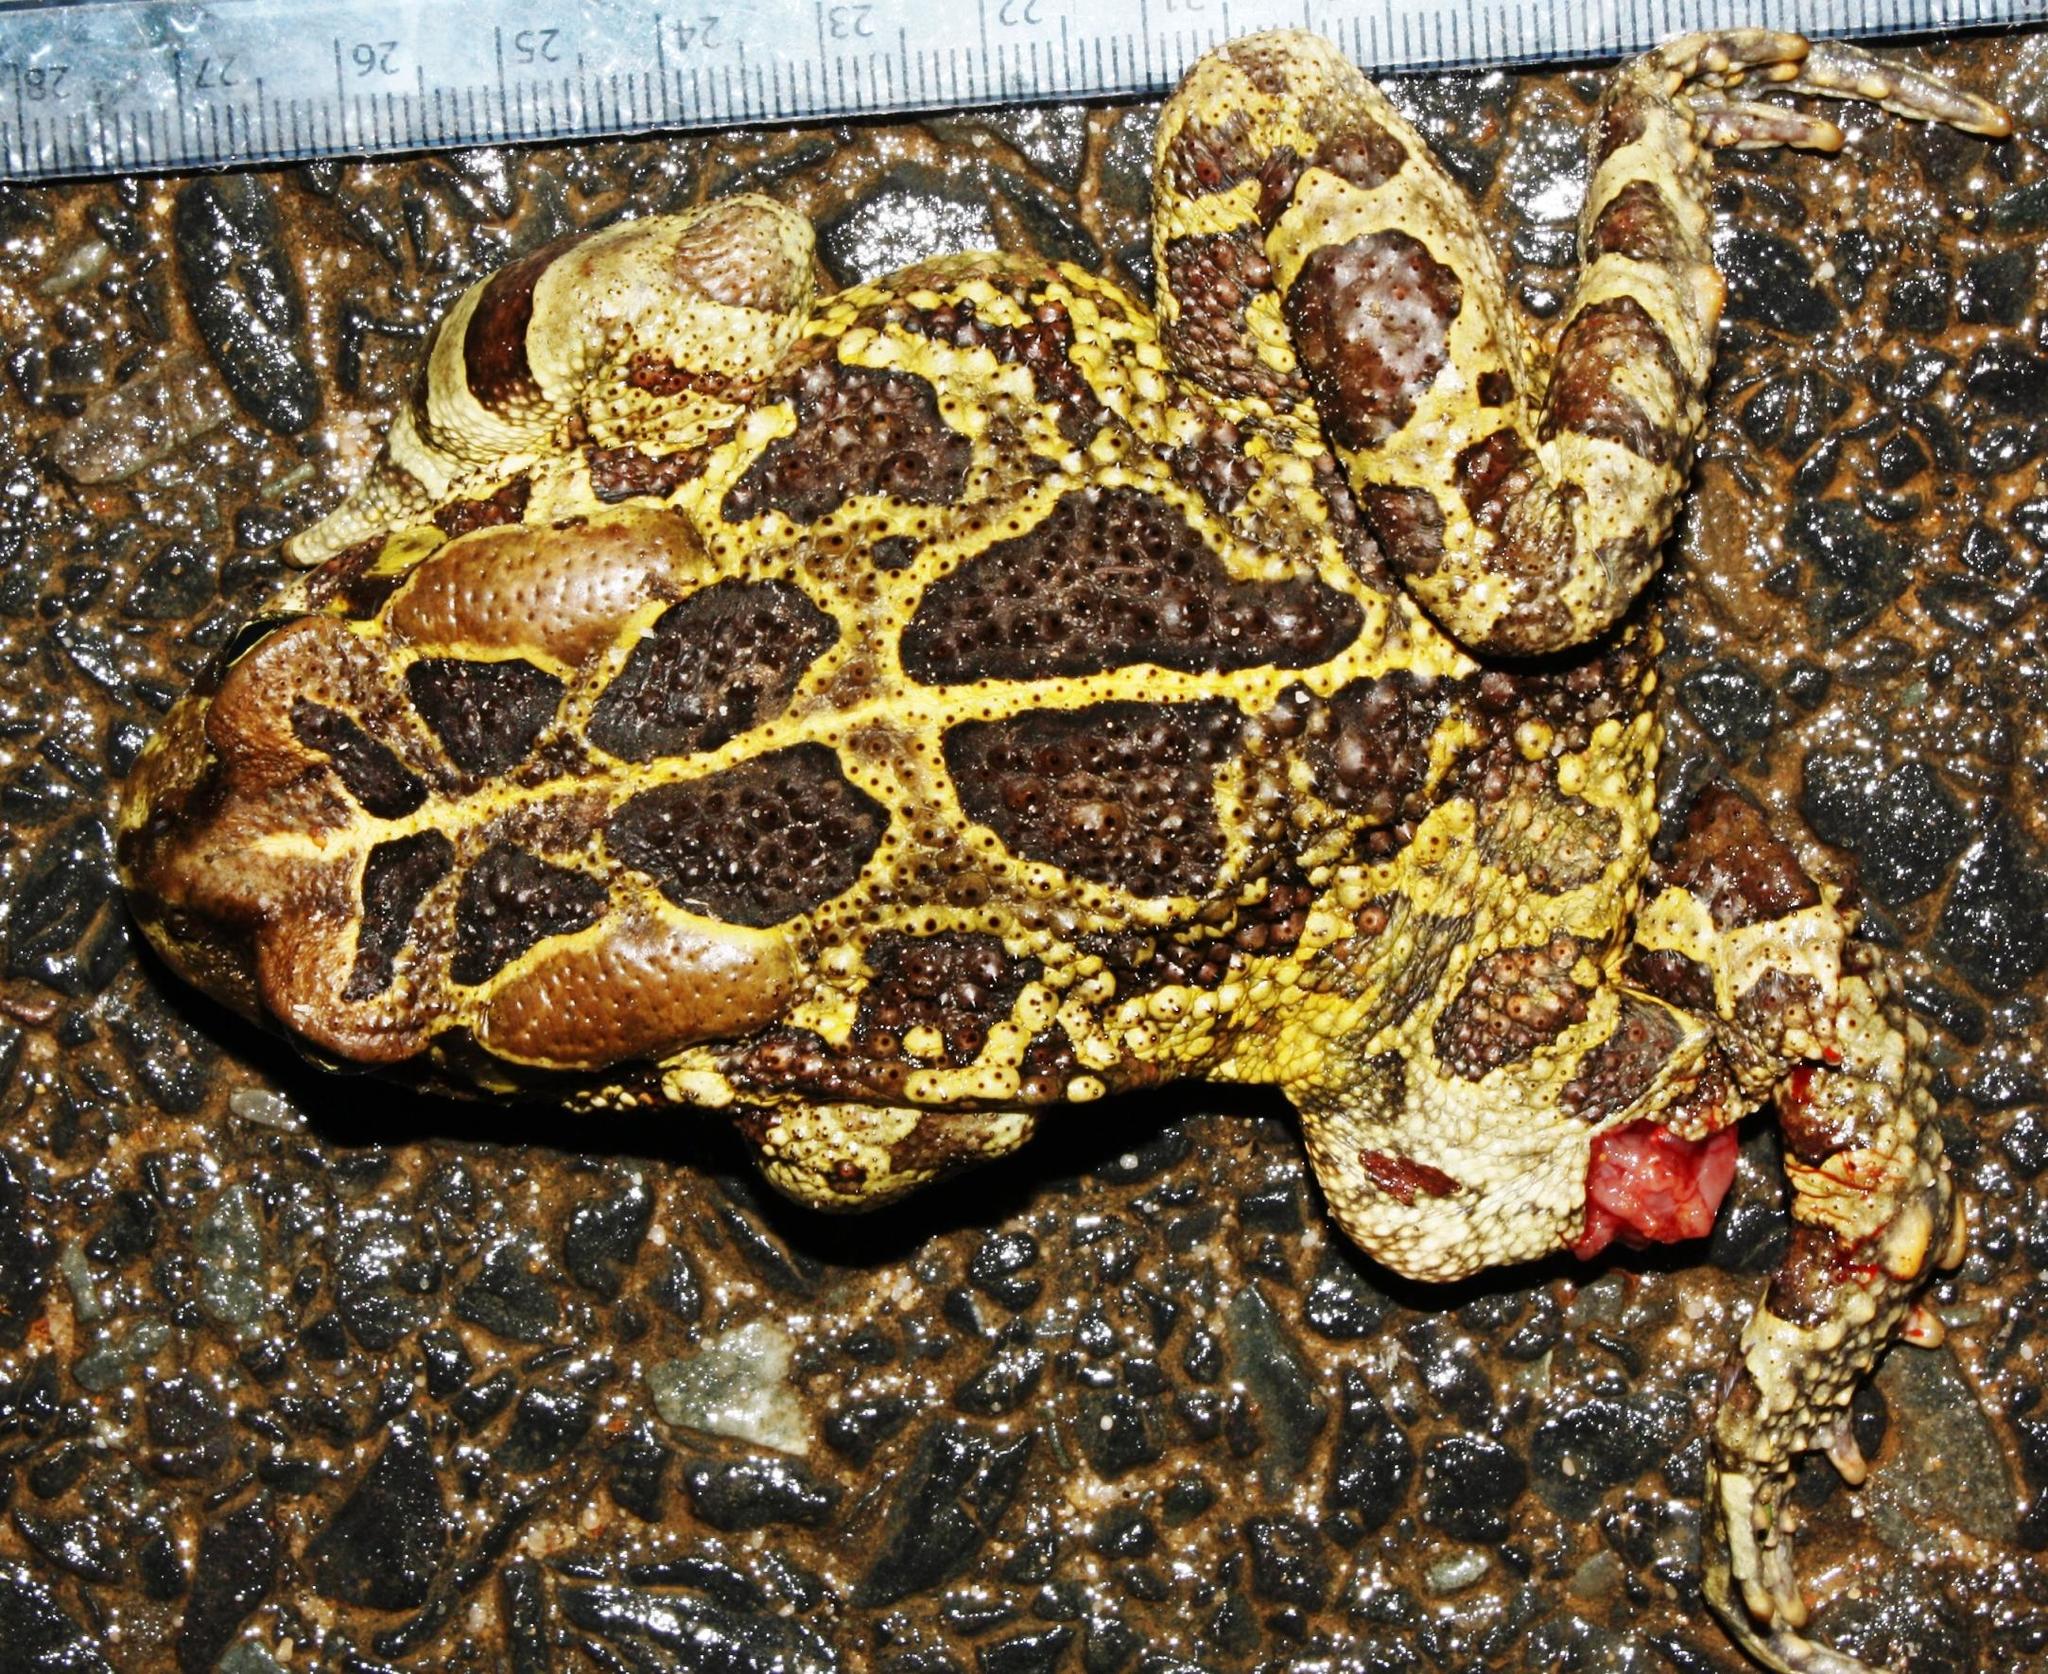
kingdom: Animalia
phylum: Chordata
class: Amphibia
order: Anura
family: Bufonidae
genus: Sclerophrys
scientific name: Sclerophrys pantherina
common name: Panther toad
